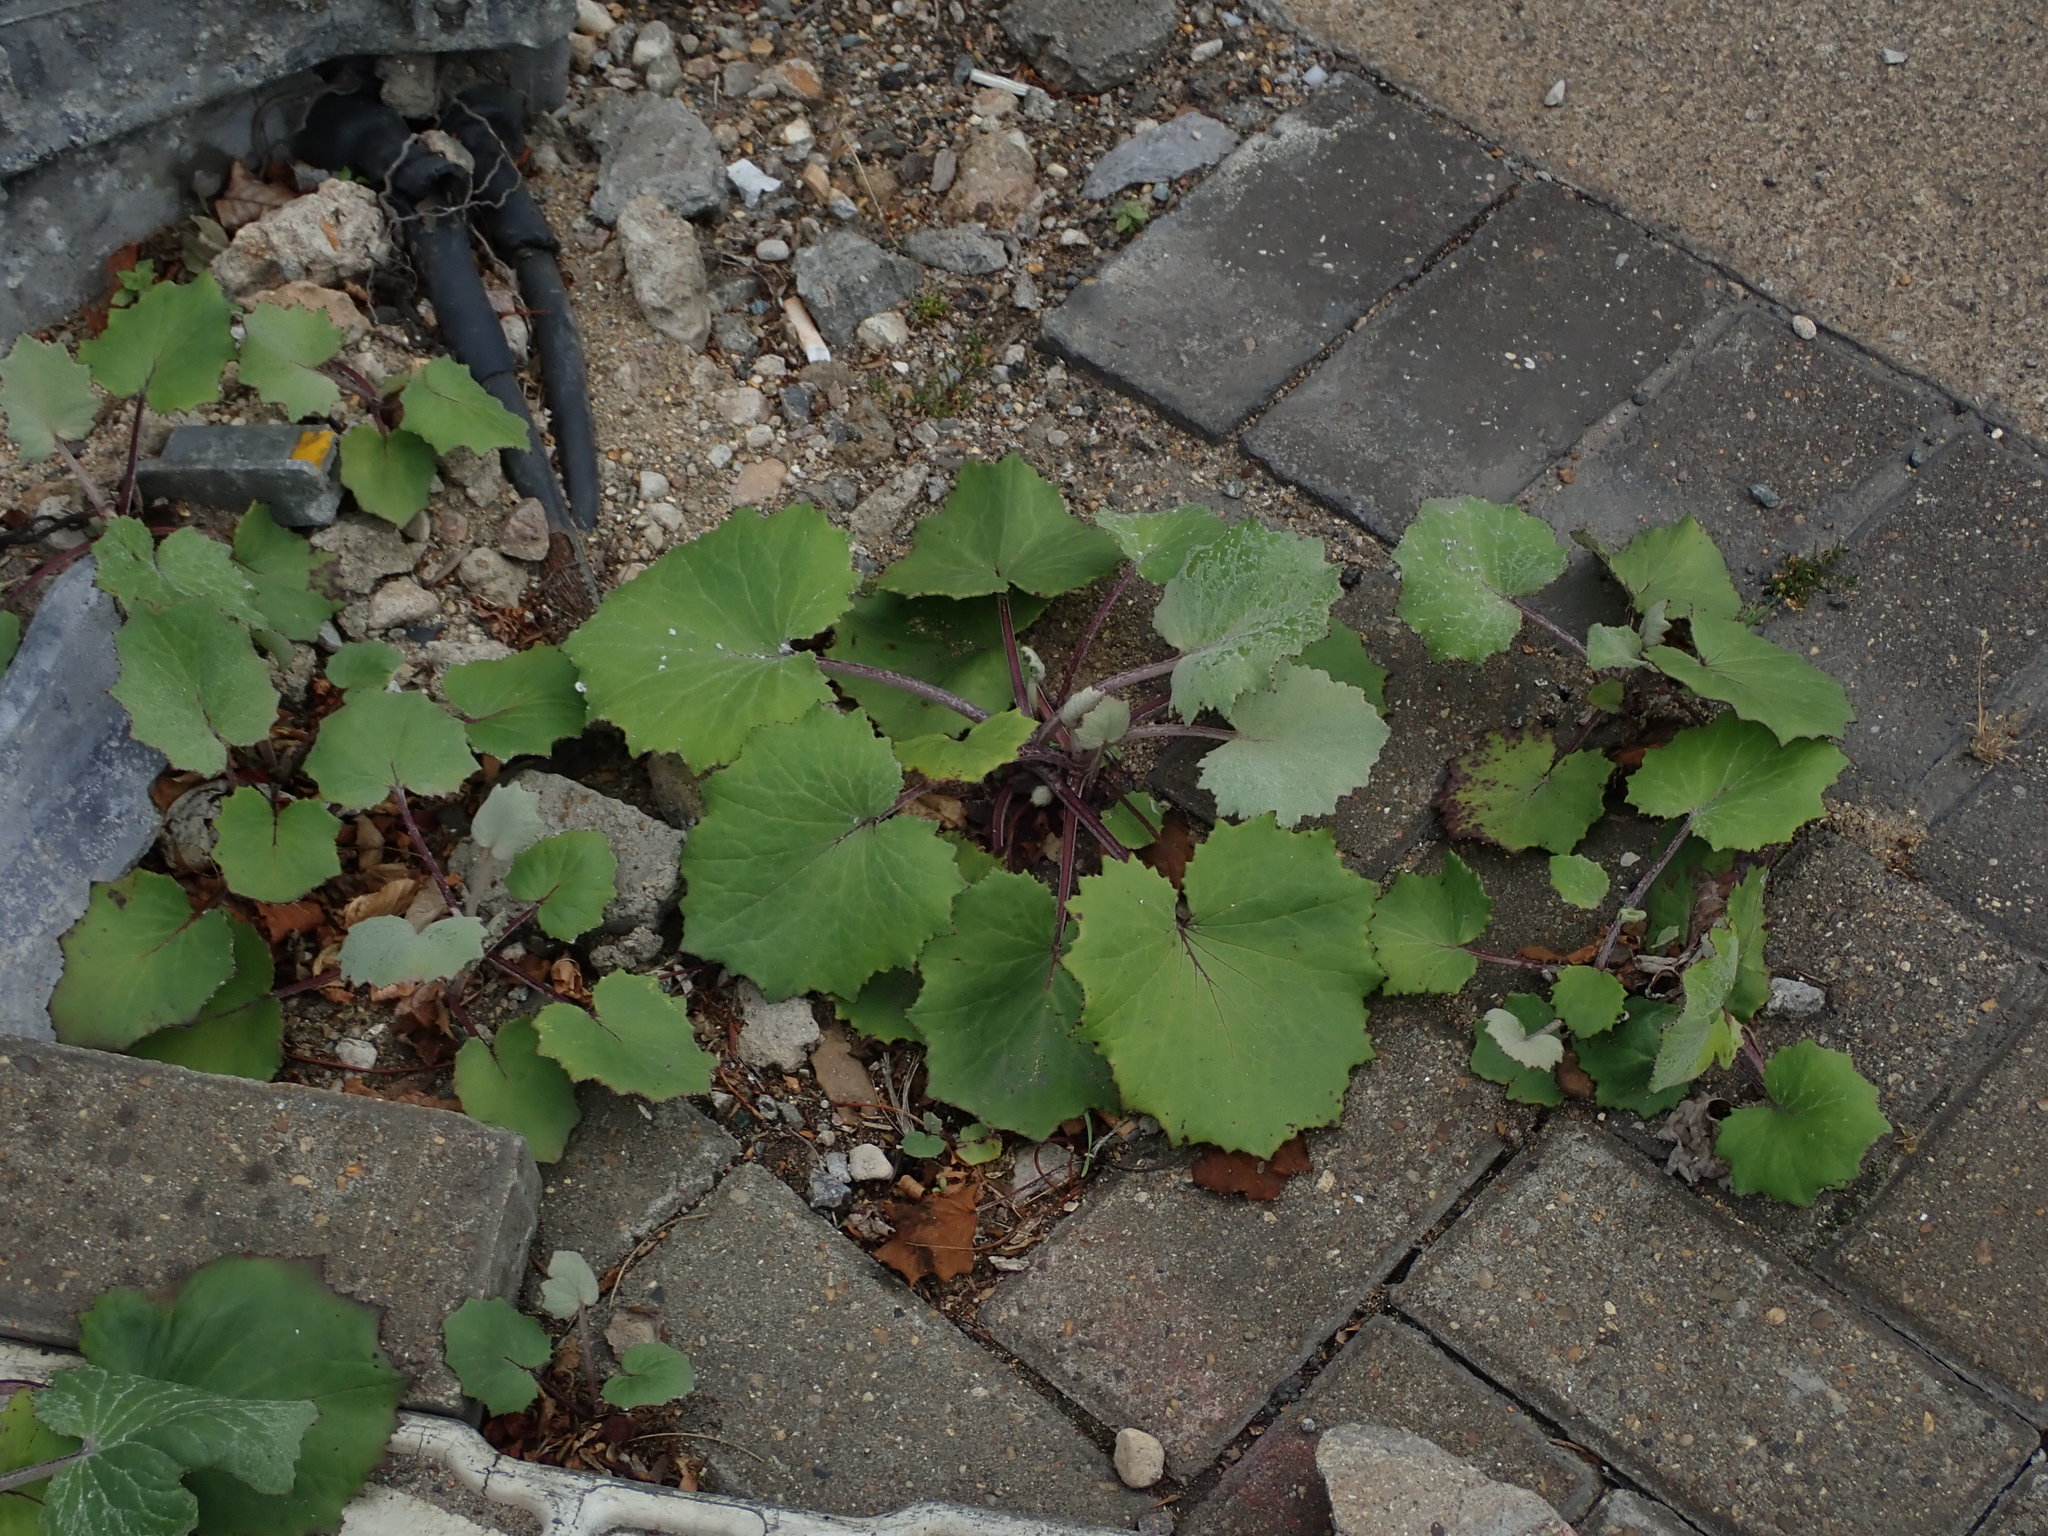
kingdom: Plantae
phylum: Tracheophyta
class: Magnoliopsida
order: Asterales
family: Asteraceae
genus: Tussilago
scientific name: Tussilago farfara
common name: Coltsfoot
